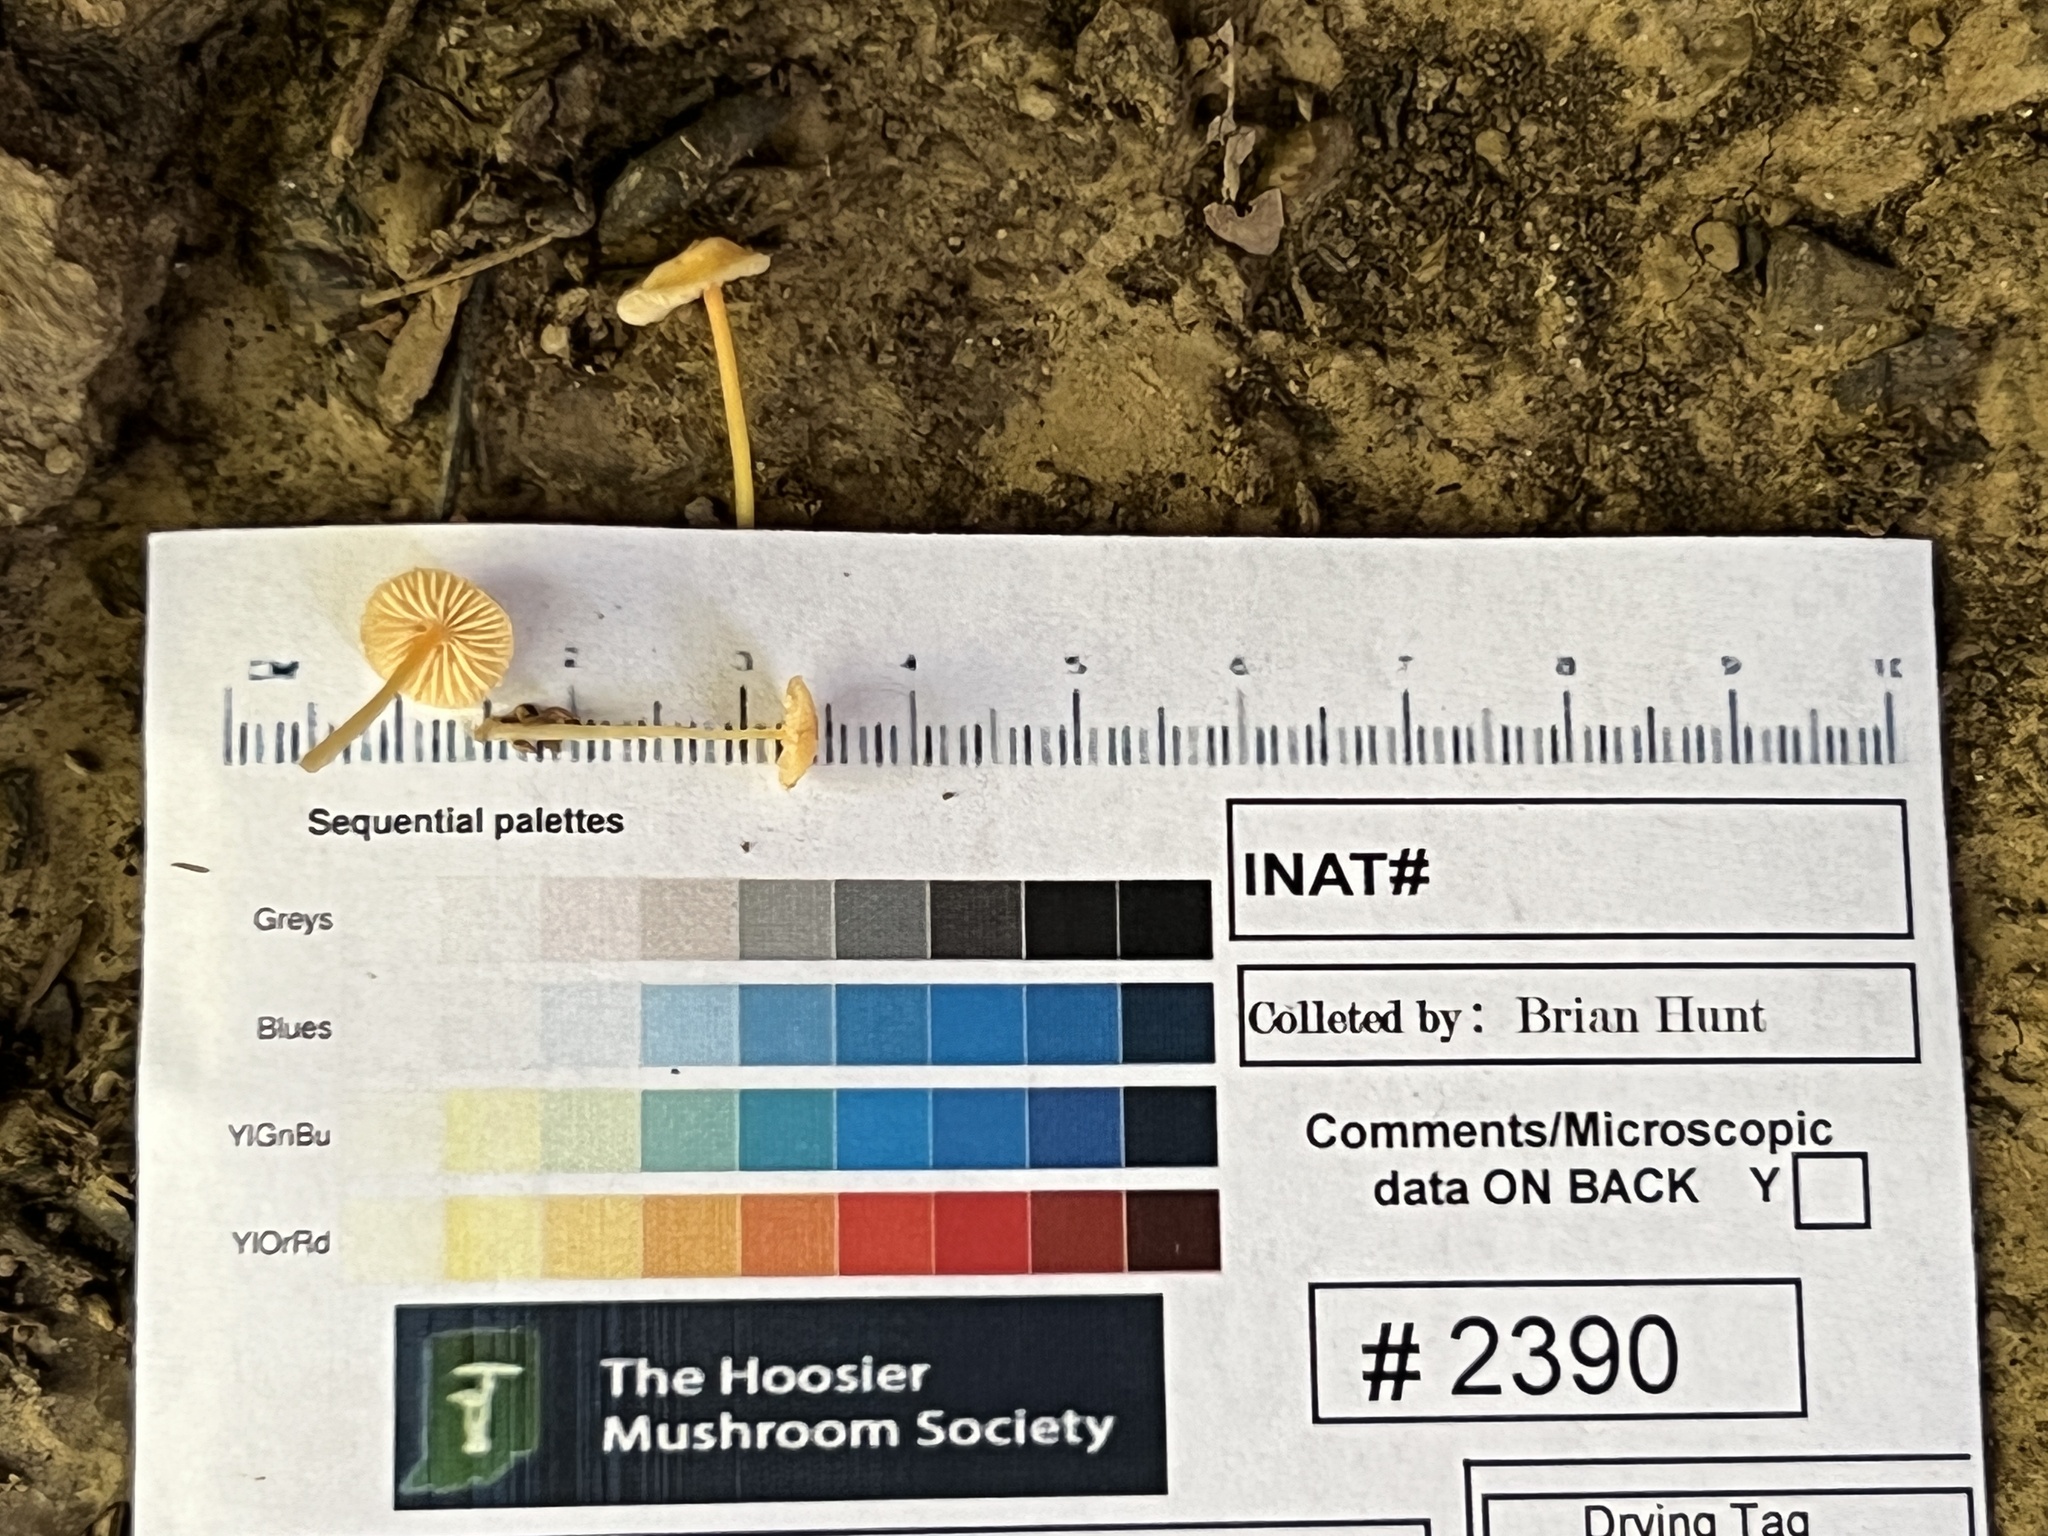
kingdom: Fungi
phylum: Basidiomycota
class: Agaricomycetes
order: Agaricales
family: Mycenaceae
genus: Mycena
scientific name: Mycena crocea
